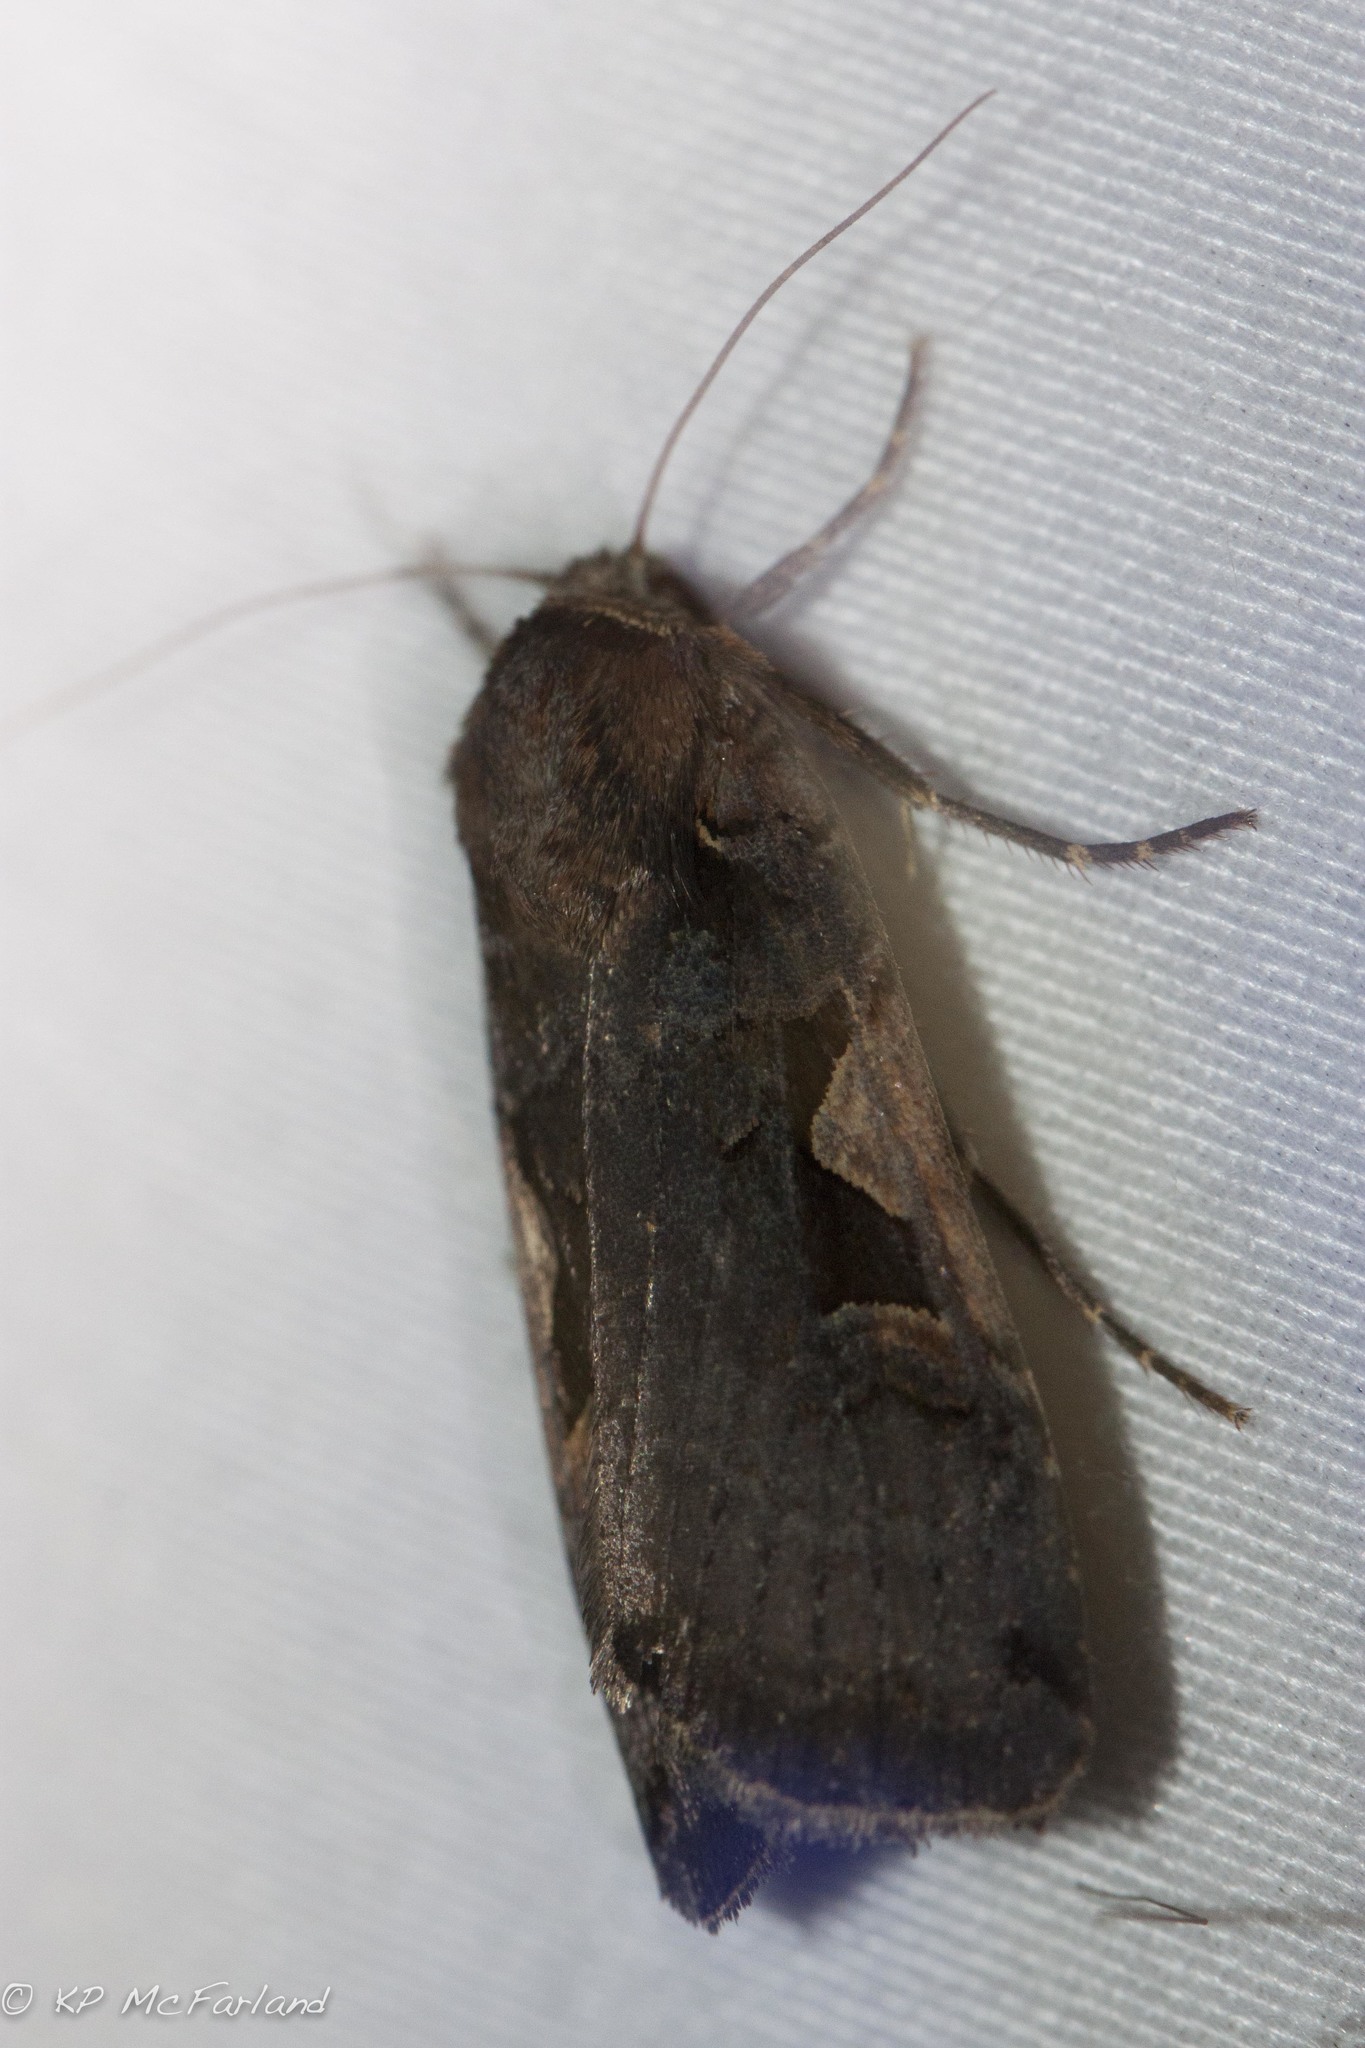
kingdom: Animalia
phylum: Arthropoda
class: Insecta
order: Lepidoptera
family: Noctuidae
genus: Feltia
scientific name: Feltia herilis
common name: Master's dart
